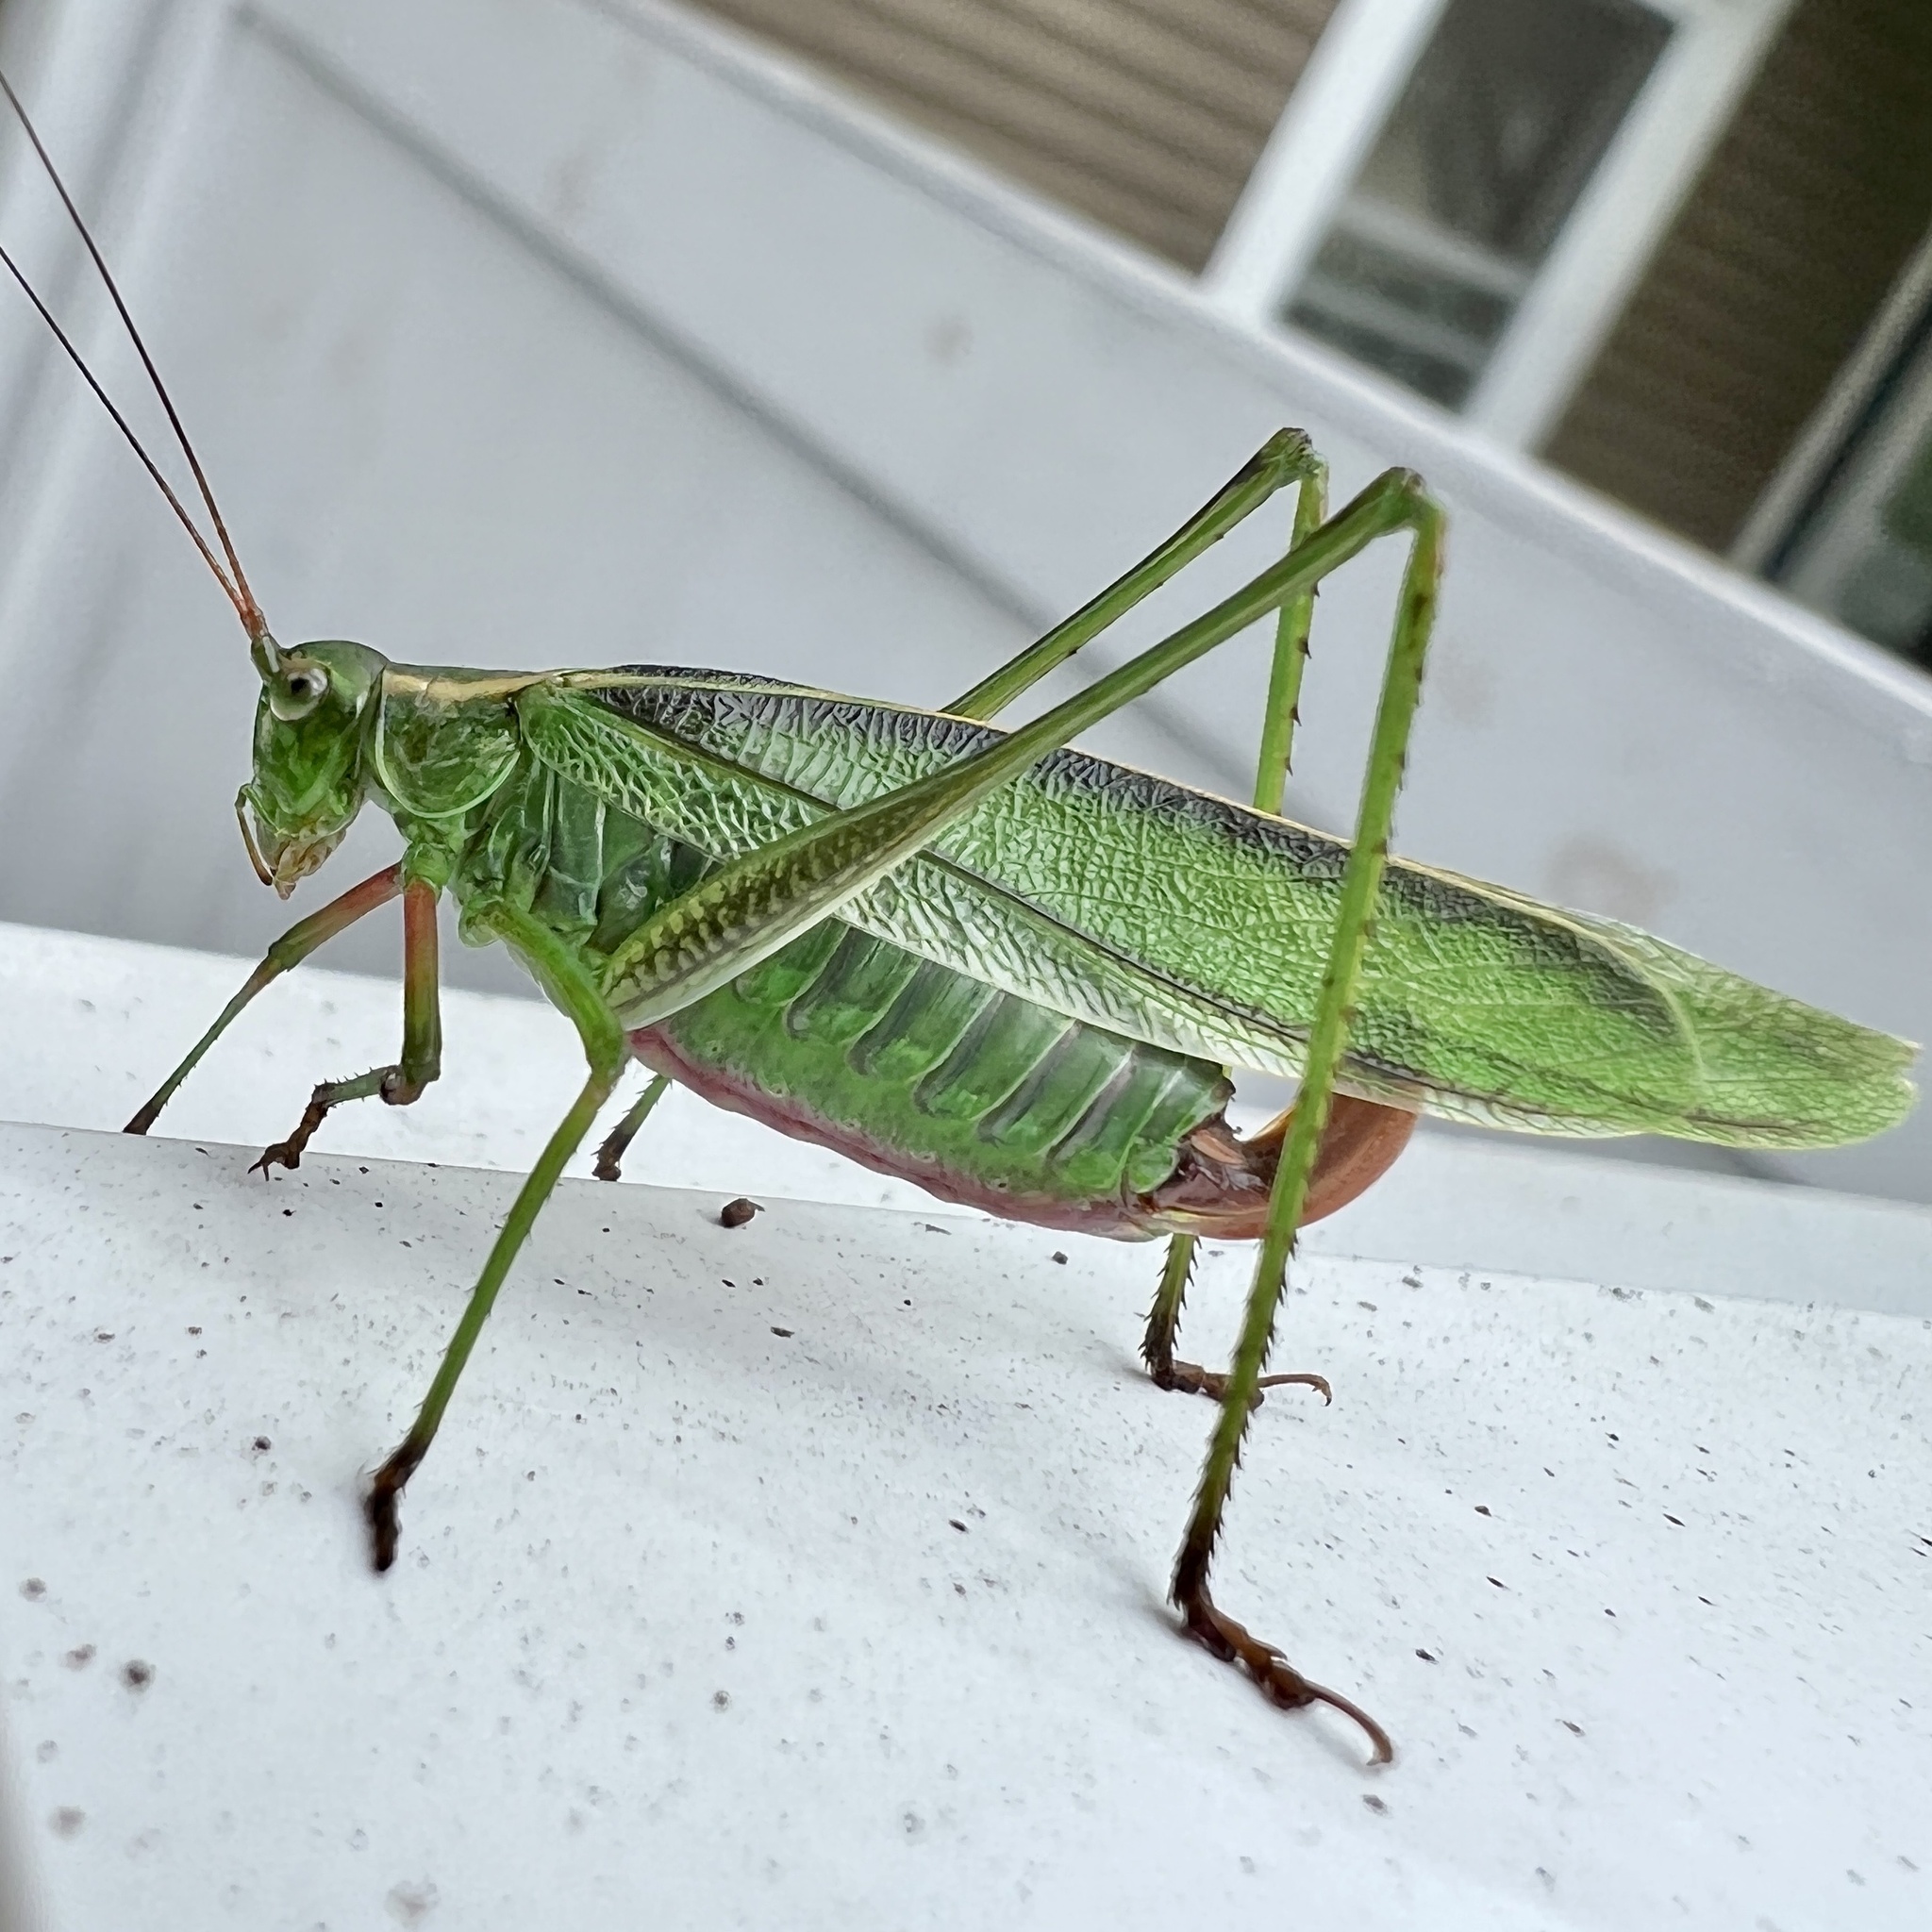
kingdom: Animalia
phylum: Arthropoda
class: Insecta
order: Orthoptera
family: Tettigoniidae
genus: Scudderia
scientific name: Scudderia fasciata
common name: Treetop bush katydid
